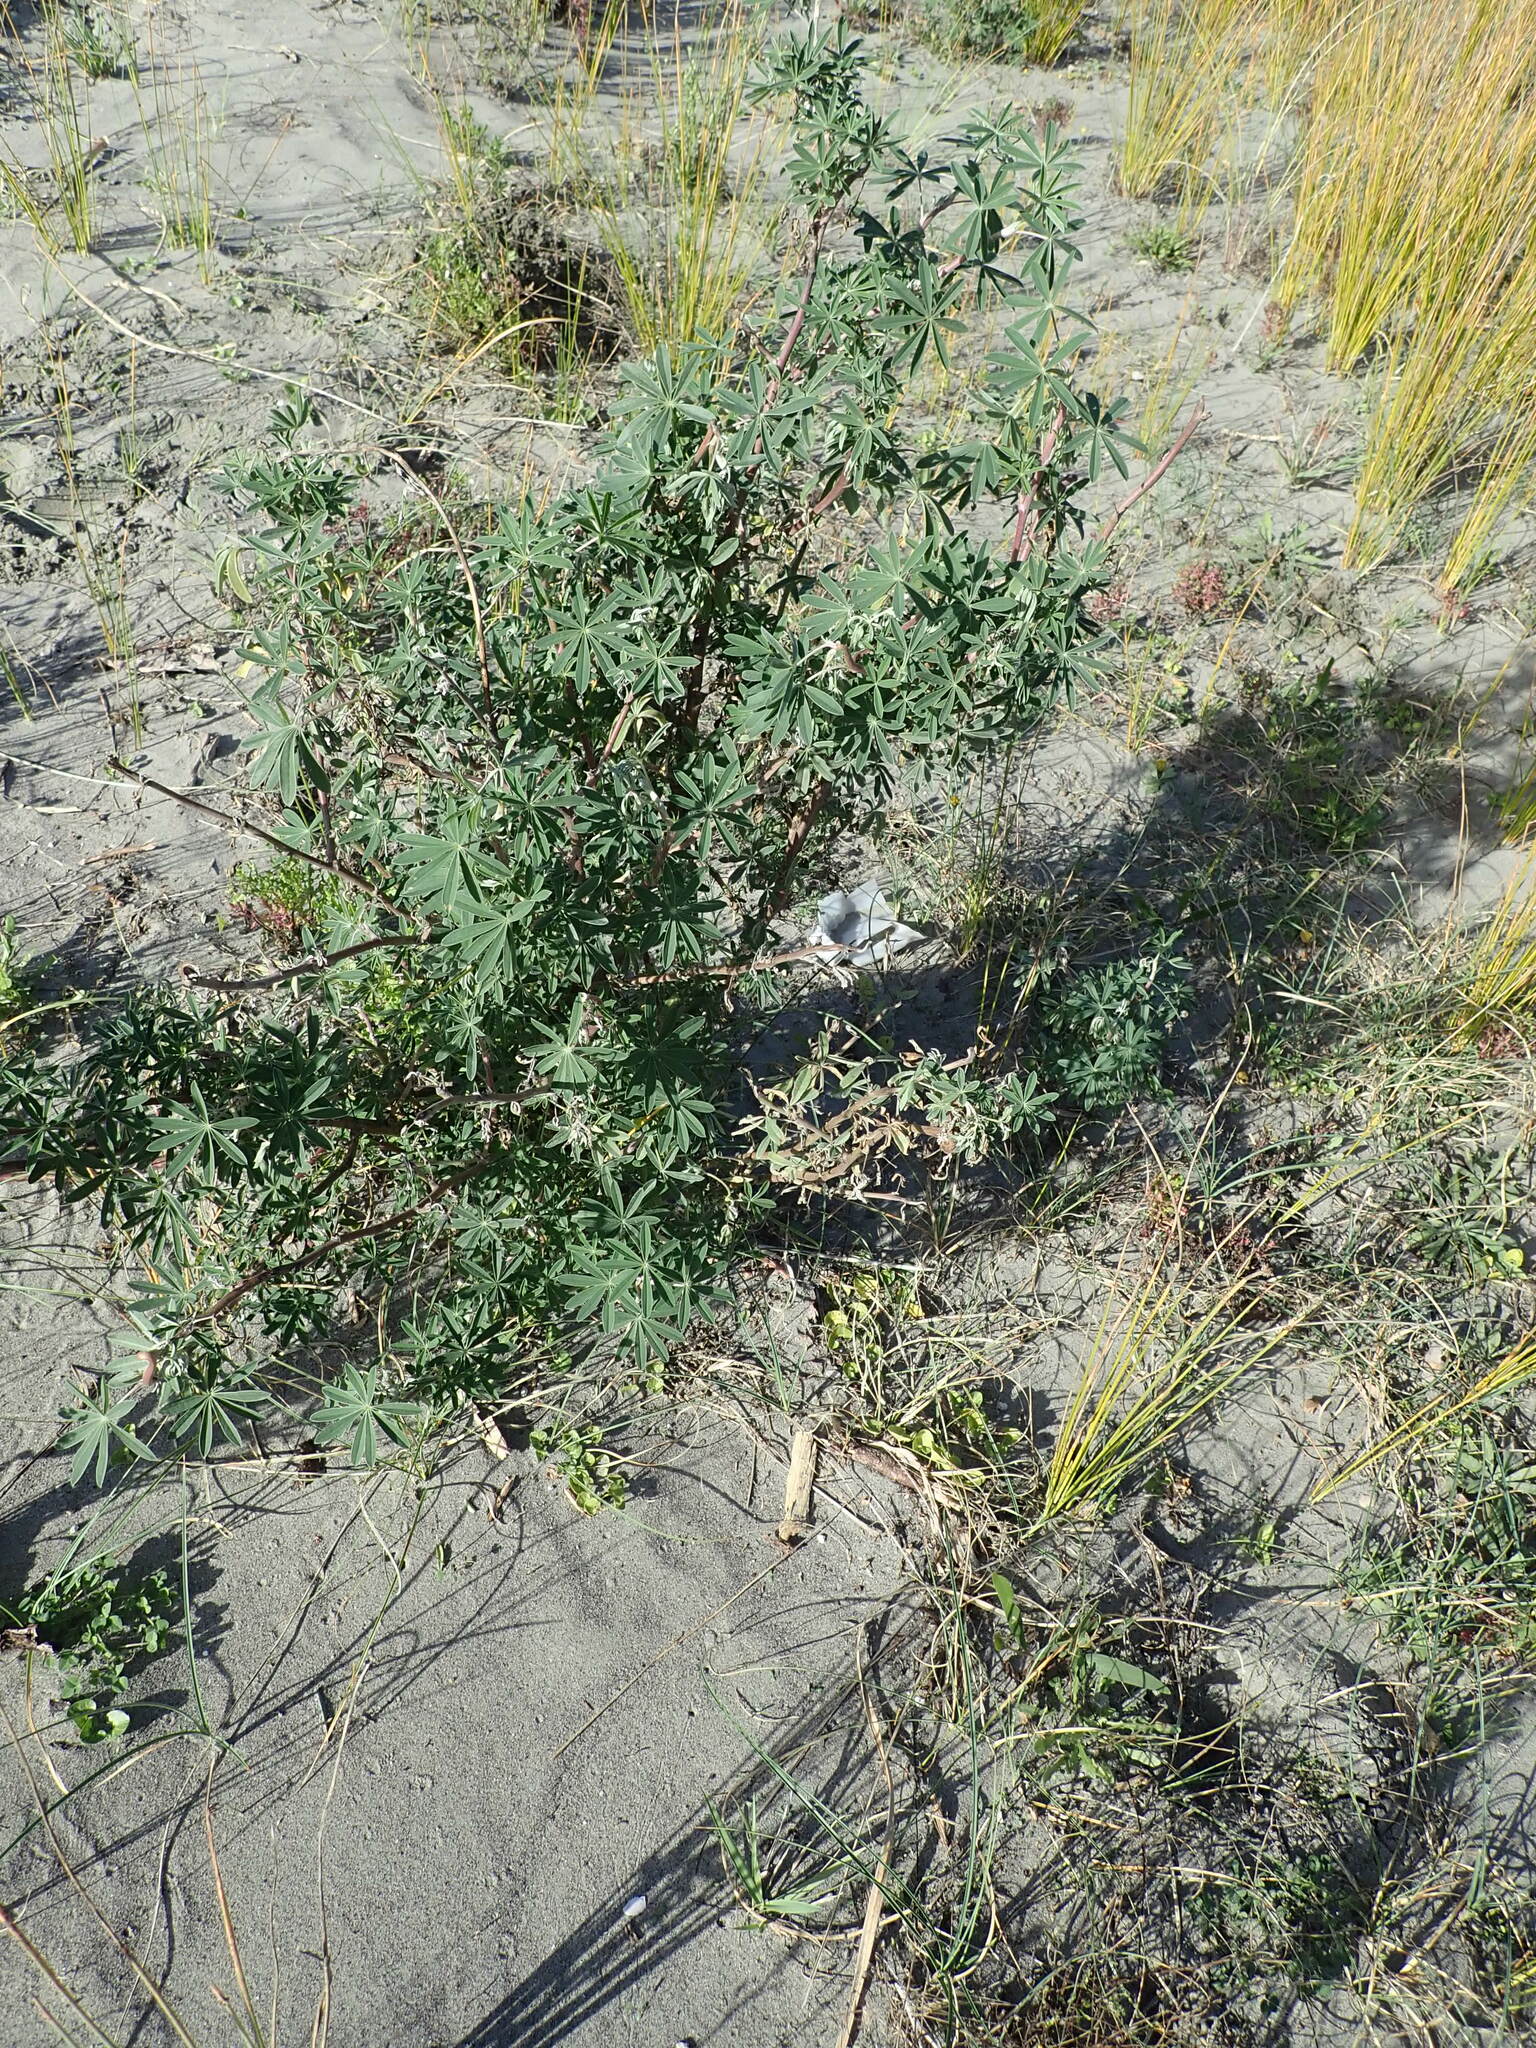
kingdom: Plantae
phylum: Tracheophyta
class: Magnoliopsida
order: Fabales
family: Fabaceae
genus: Lupinus
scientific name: Lupinus arboreus
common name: Yellow bush lupine
